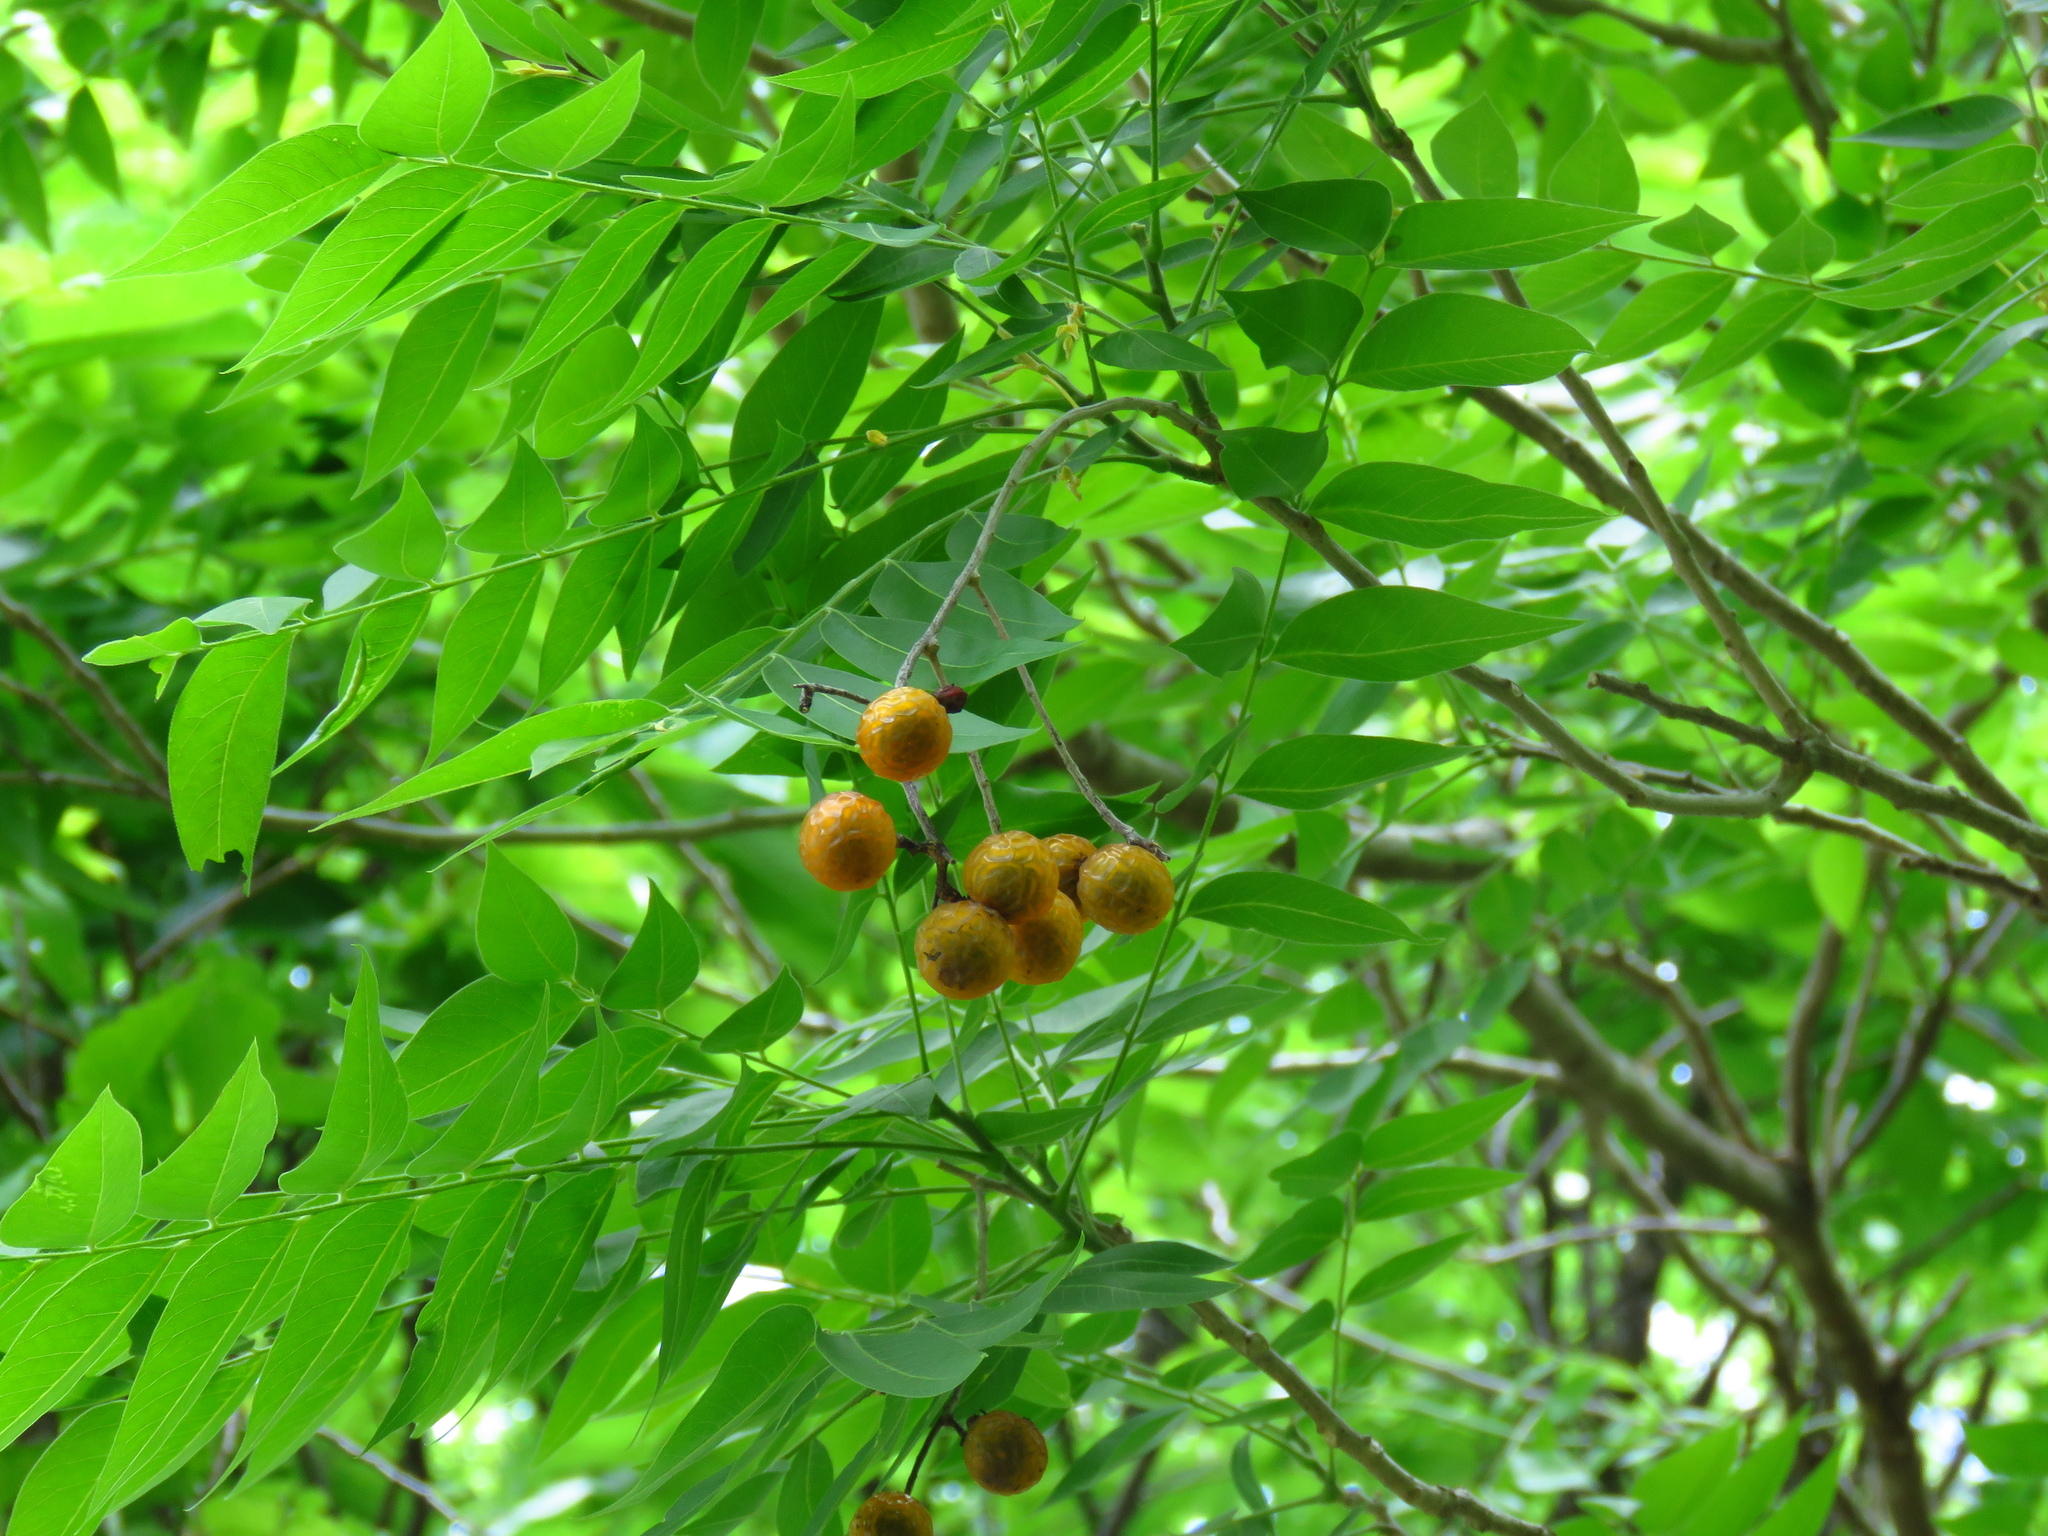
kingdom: Plantae
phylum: Tracheophyta
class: Magnoliopsida
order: Sapindales
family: Sapindaceae
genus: Sapindus
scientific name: Sapindus drummondii
